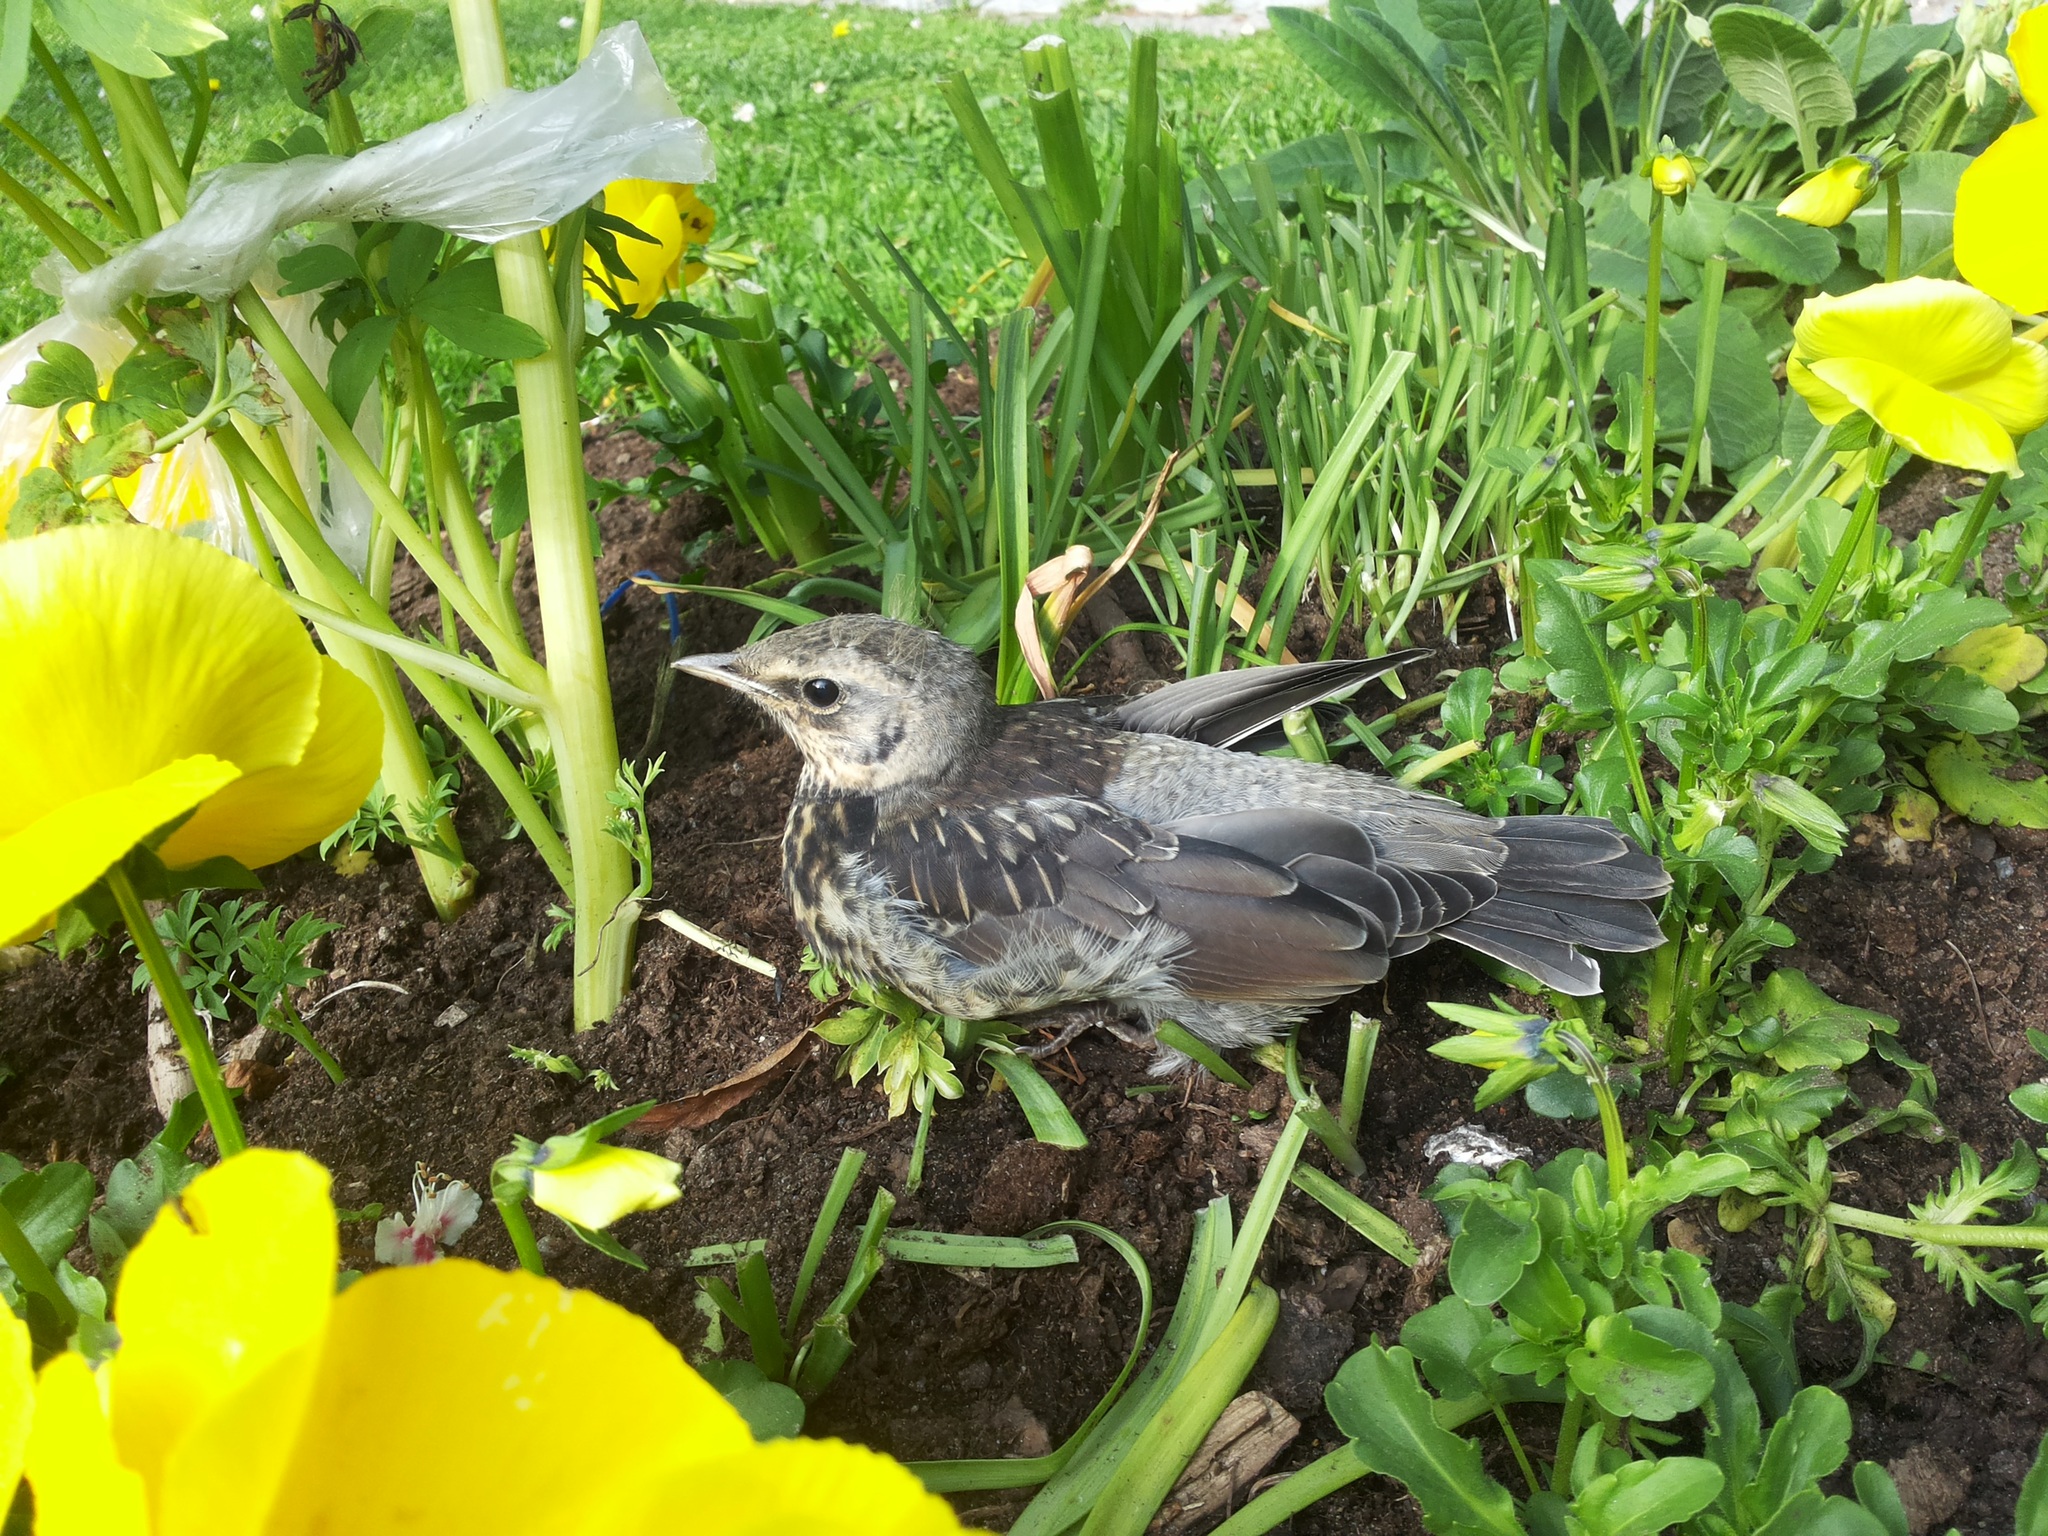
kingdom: Animalia
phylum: Chordata
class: Aves
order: Passeriformes
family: Turdidae
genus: Turdus
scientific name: Turdus pilaris
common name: Fieldfare
